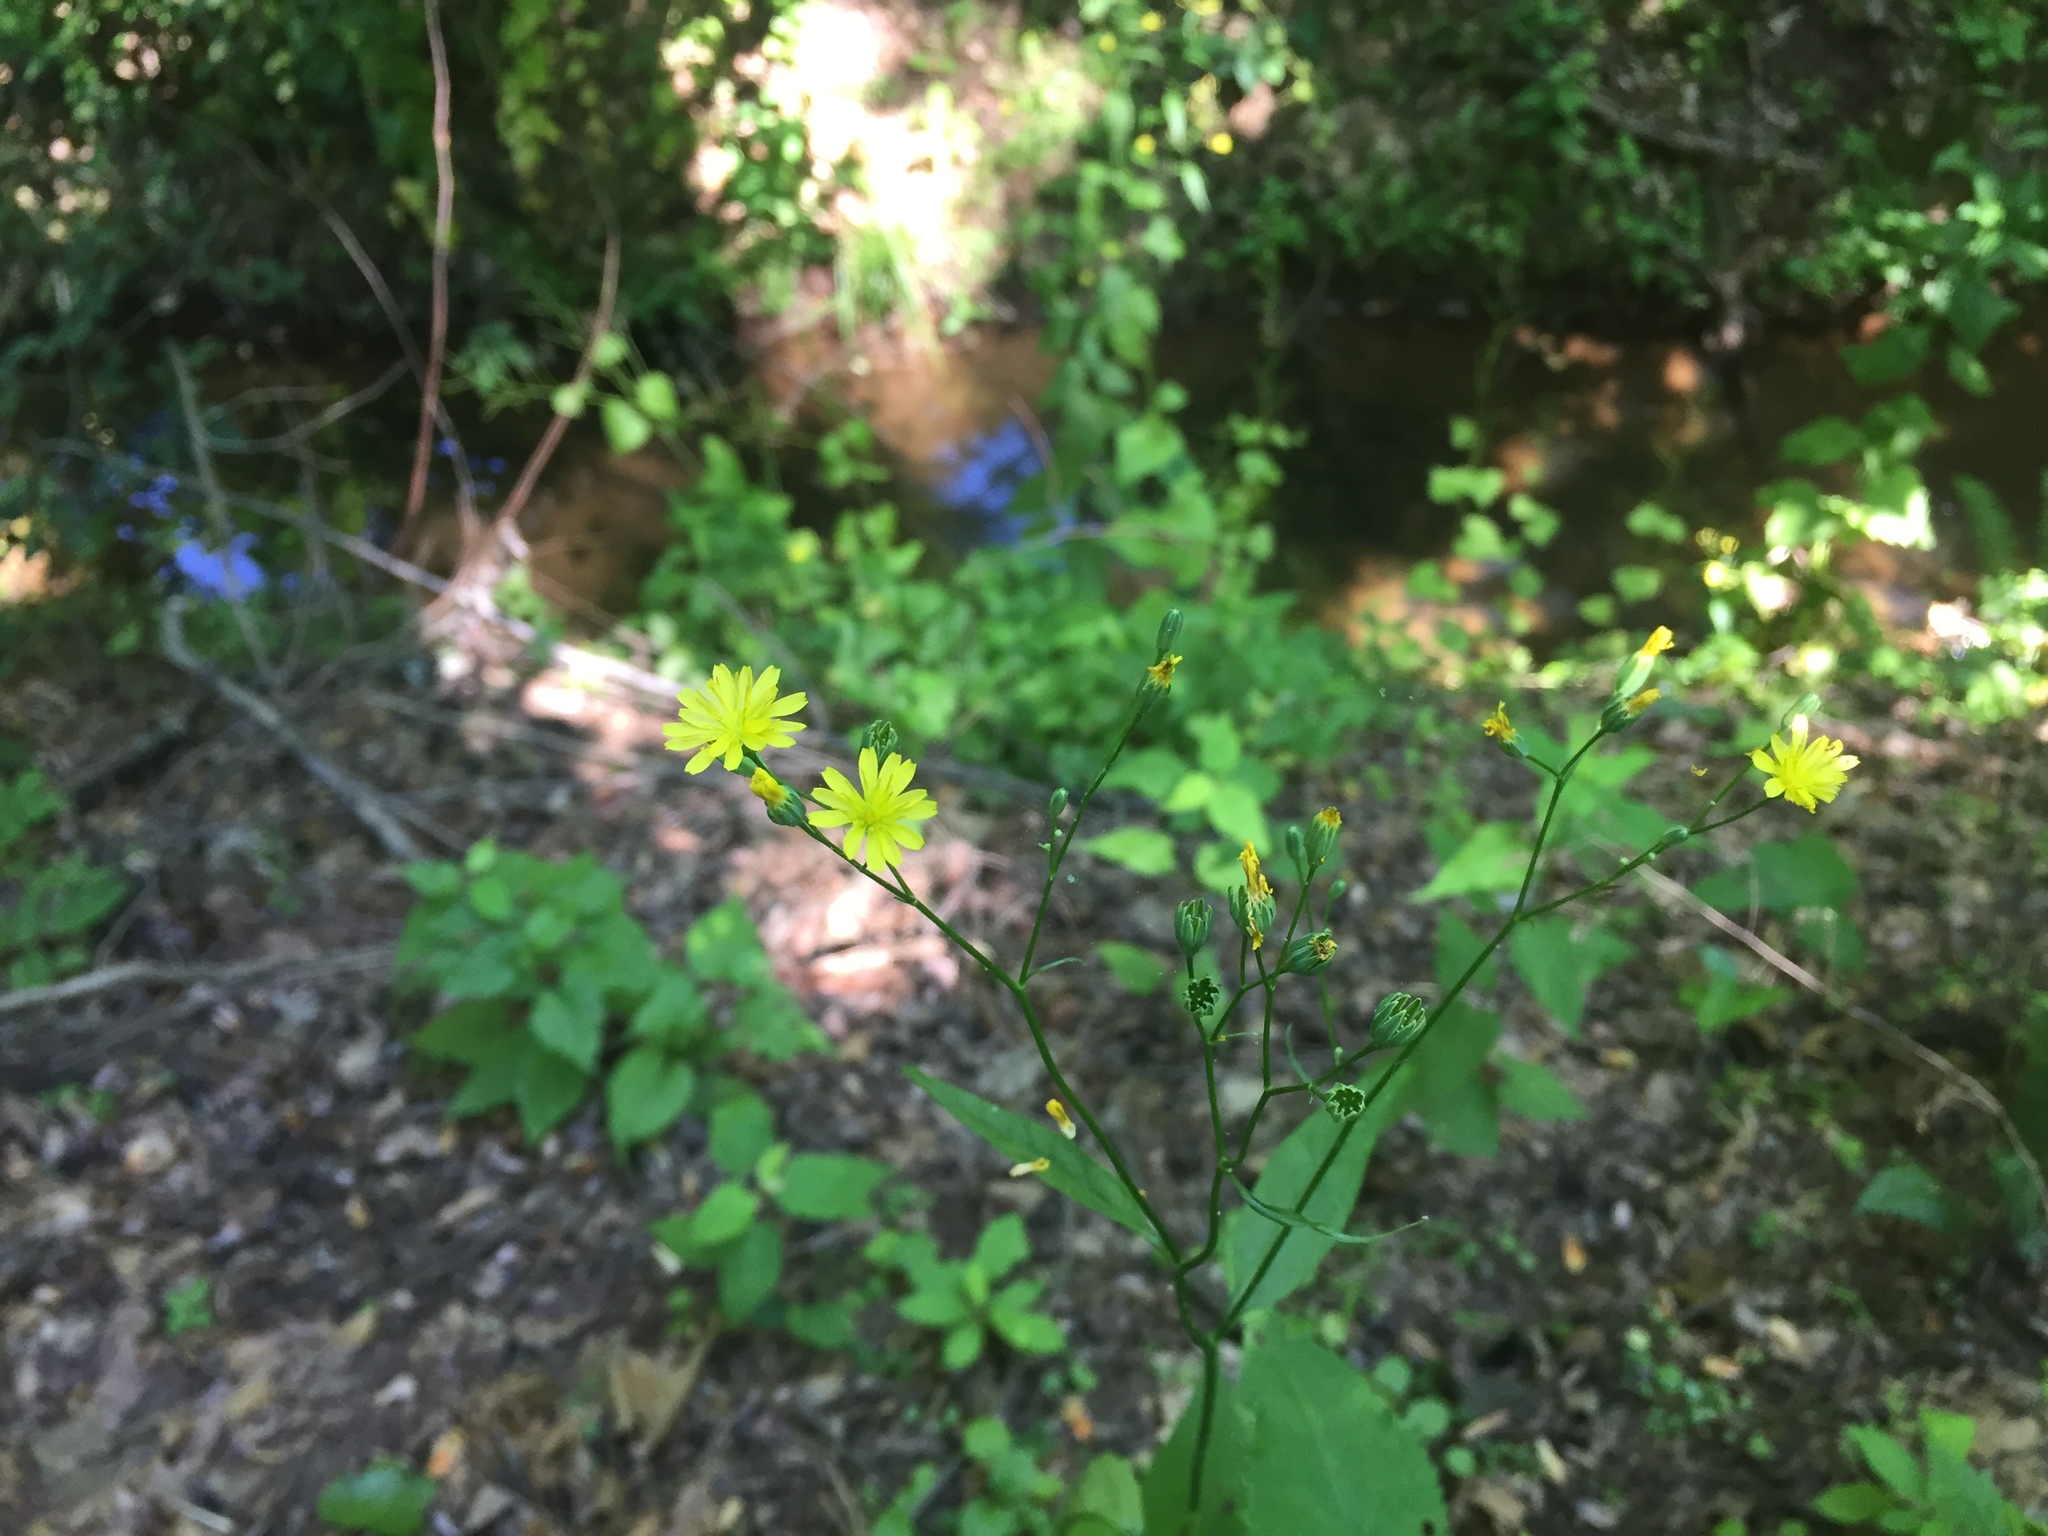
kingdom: Plantae
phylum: Tracheophyta
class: Magnoliopsida
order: Asterales
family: Asteraceae
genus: Lapsana
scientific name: Lapsana communis
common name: Nipplewort
